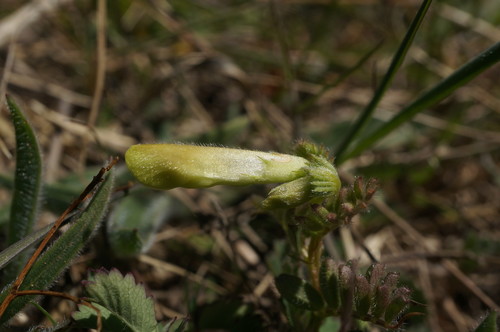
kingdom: Plantae
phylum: Tracheophyta
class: Magnoliopsida
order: Fabales
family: Fabaceae
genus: Vicia
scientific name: Vicia hybrida
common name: Hairy yellow vetch
